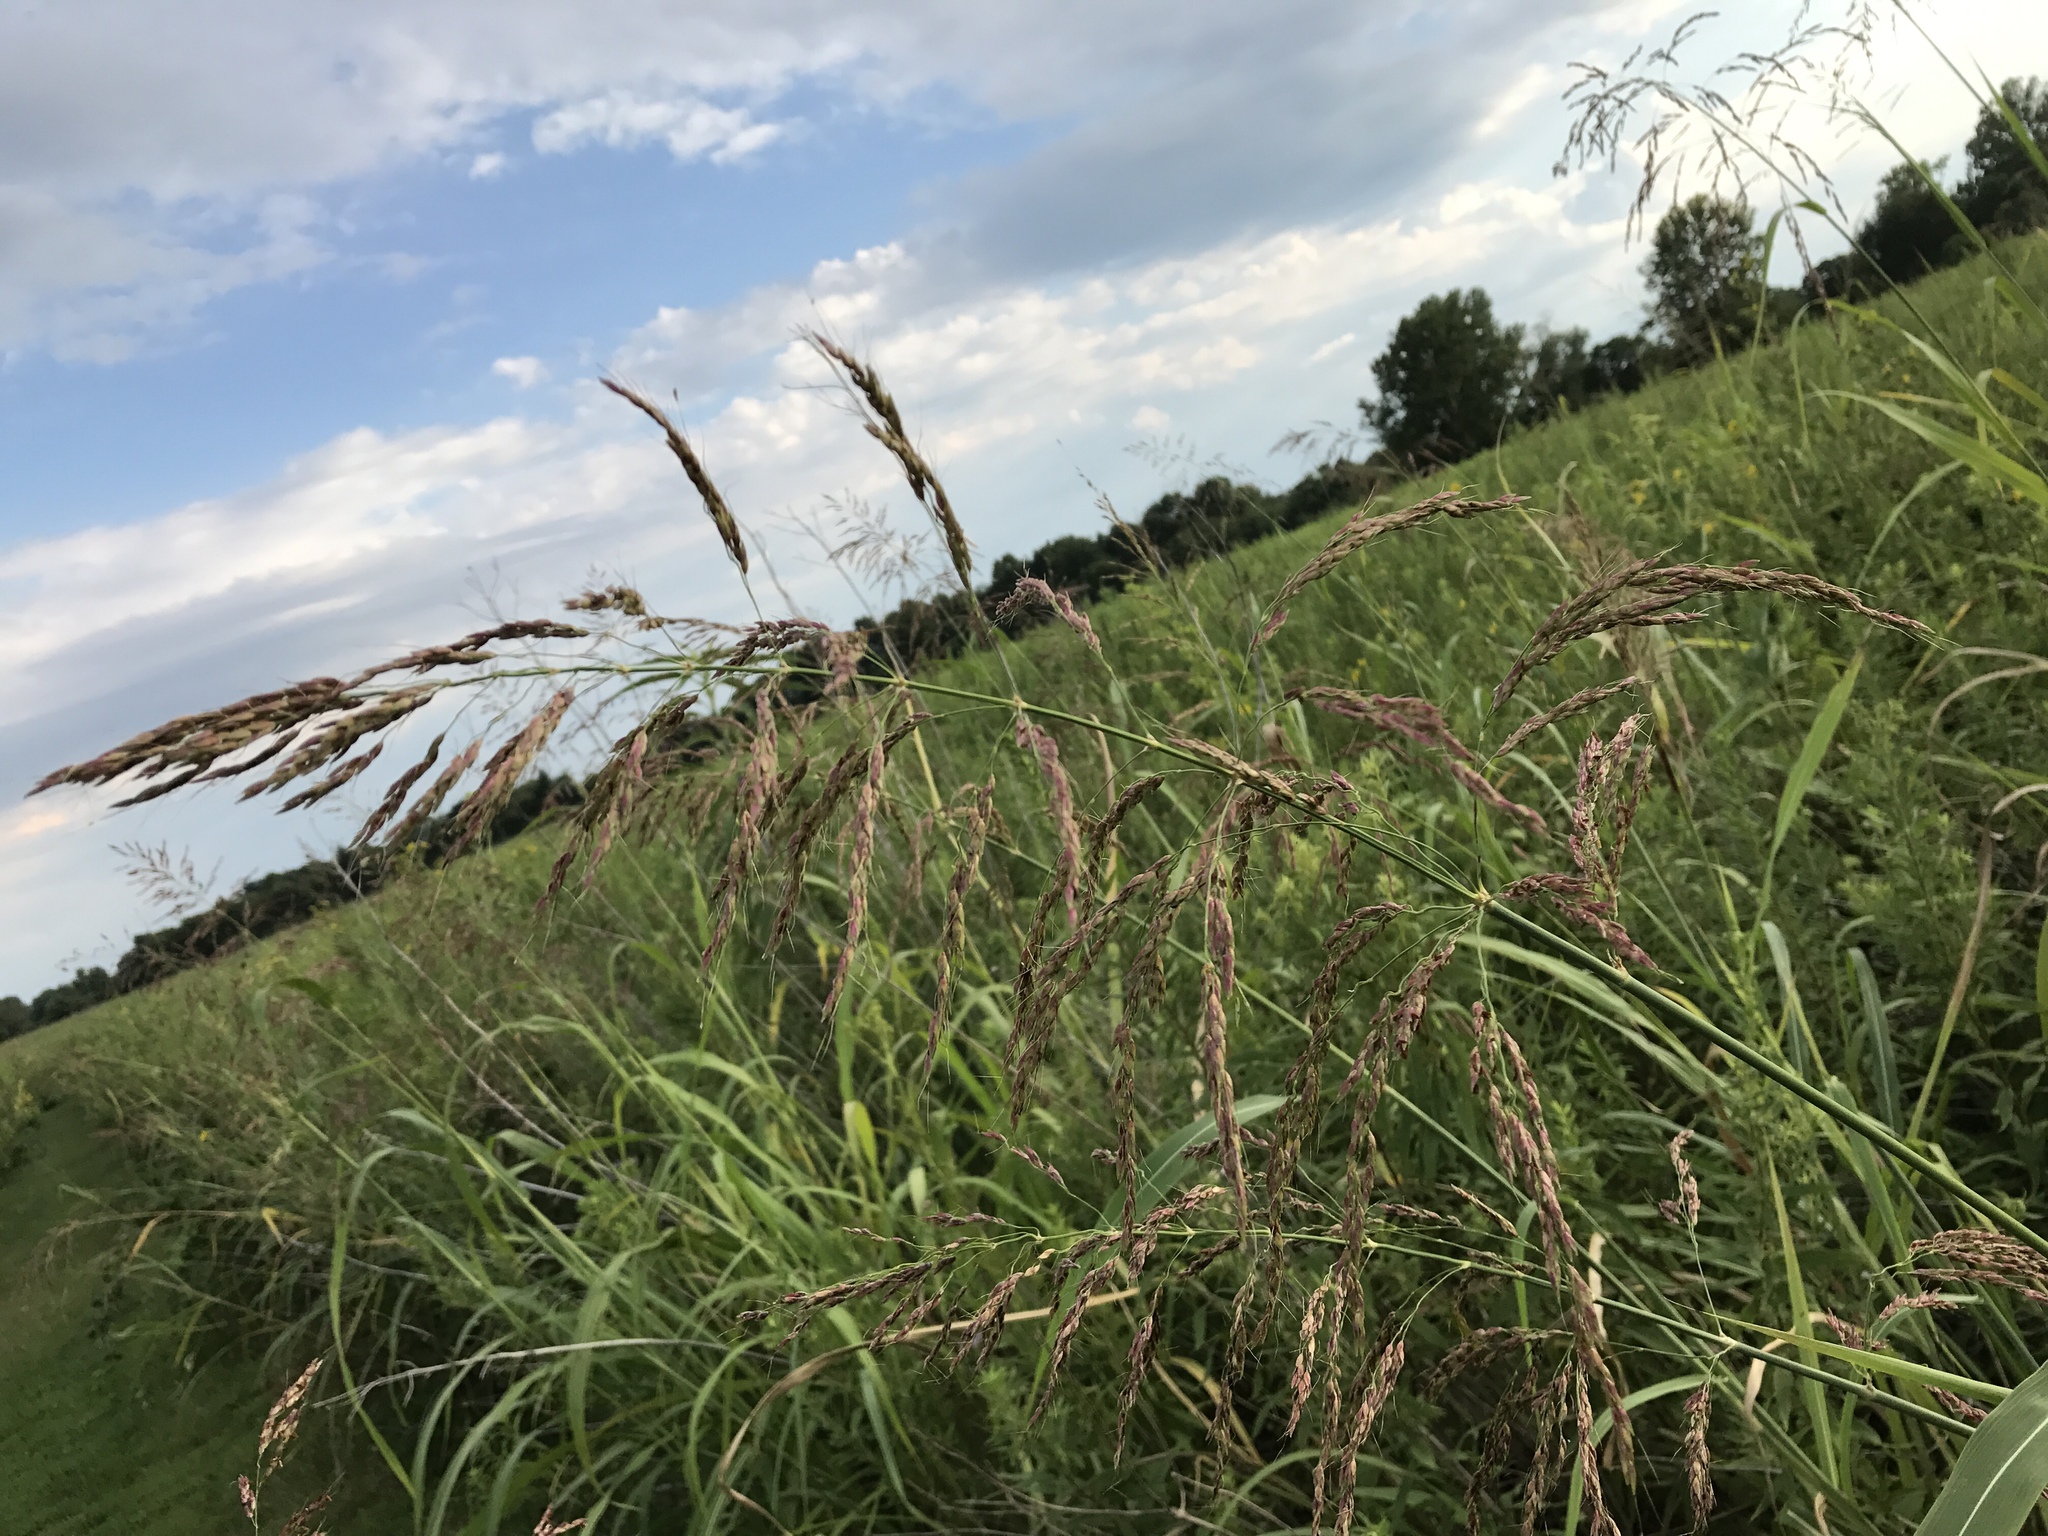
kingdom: Plantae
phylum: Tracheophyta
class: Liliopsida
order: Poales
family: Poaceae
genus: Sorghum
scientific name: Sorghum halepense
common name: Johnson-grass
